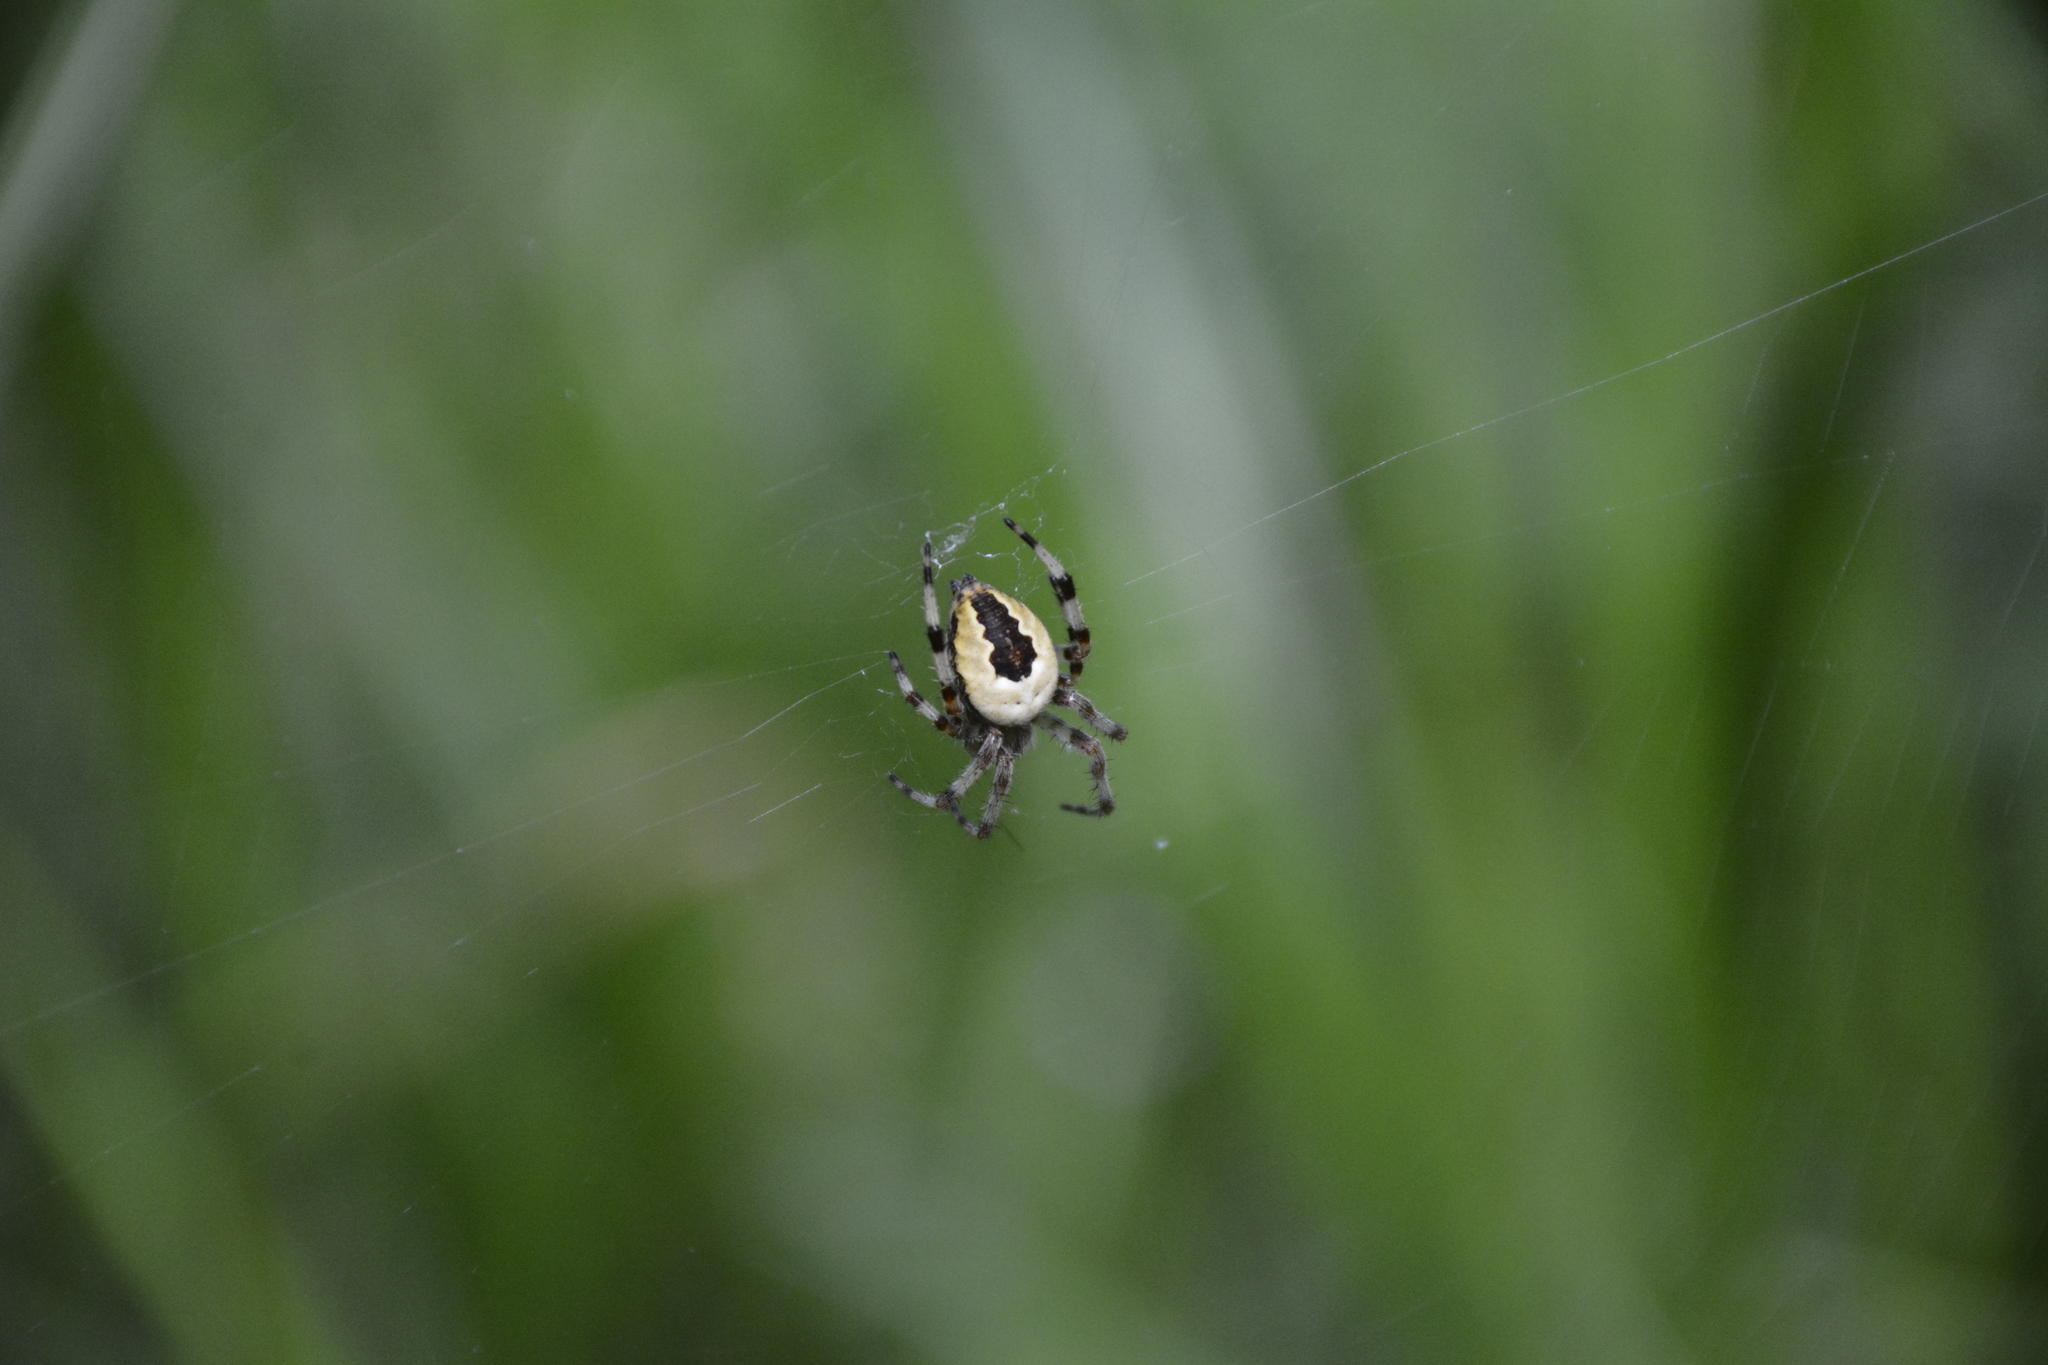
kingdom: Animalia
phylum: Arthropoda
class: Arachnida
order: Araneae
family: Araneidae
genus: Araneus
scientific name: Araneus marmoreus
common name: Marbled orbweaver
